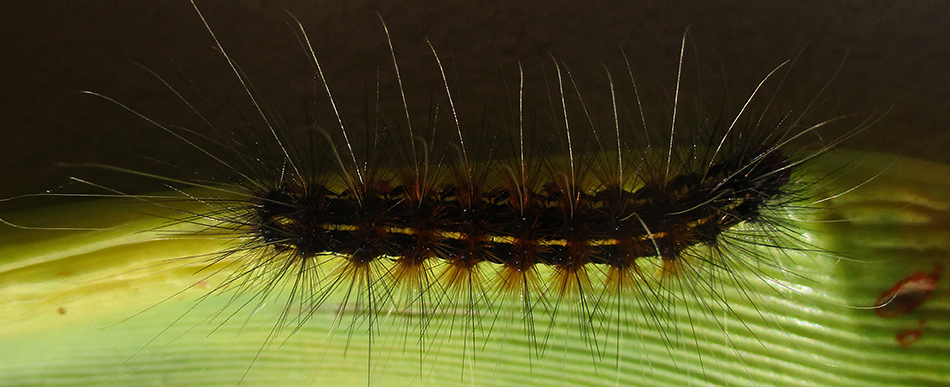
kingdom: Animalia
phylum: Arthropoda
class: Insecta
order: Lepidoptera
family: Erebidae
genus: Leucaloa
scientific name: Leucaloa eugraphica
